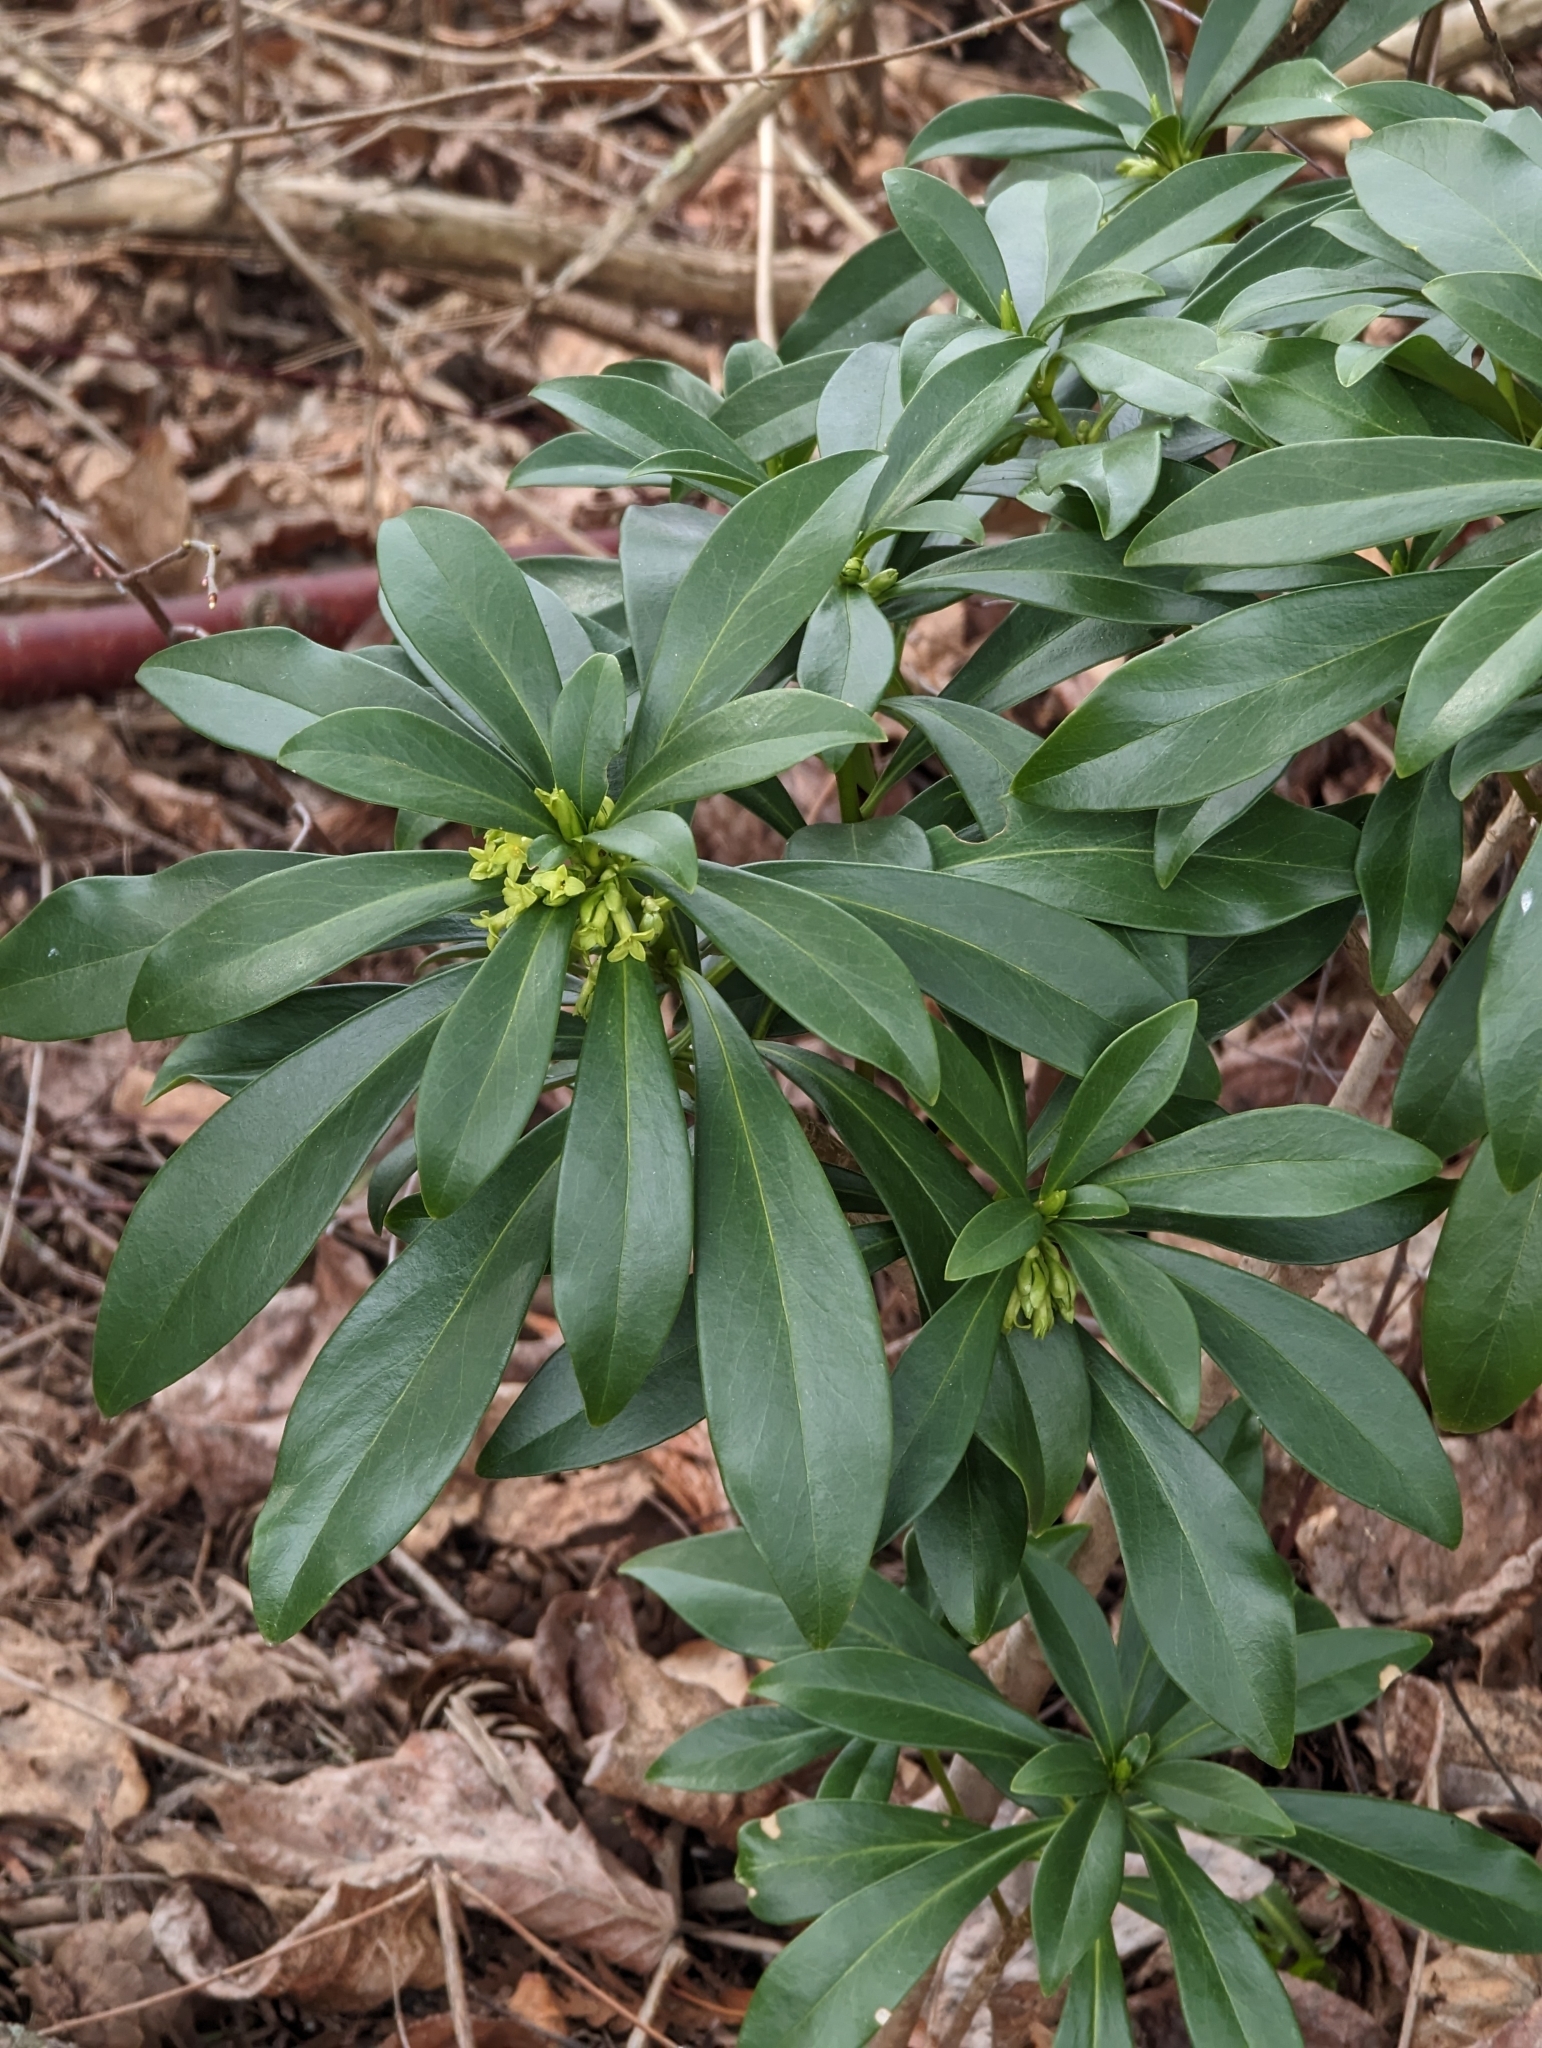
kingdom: Plantae
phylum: Tracheophyta
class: Magnoliopsida
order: Malvales
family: Thymelaeaceae
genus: Daphne
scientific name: Daphne laureola
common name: Spurge-laurel
